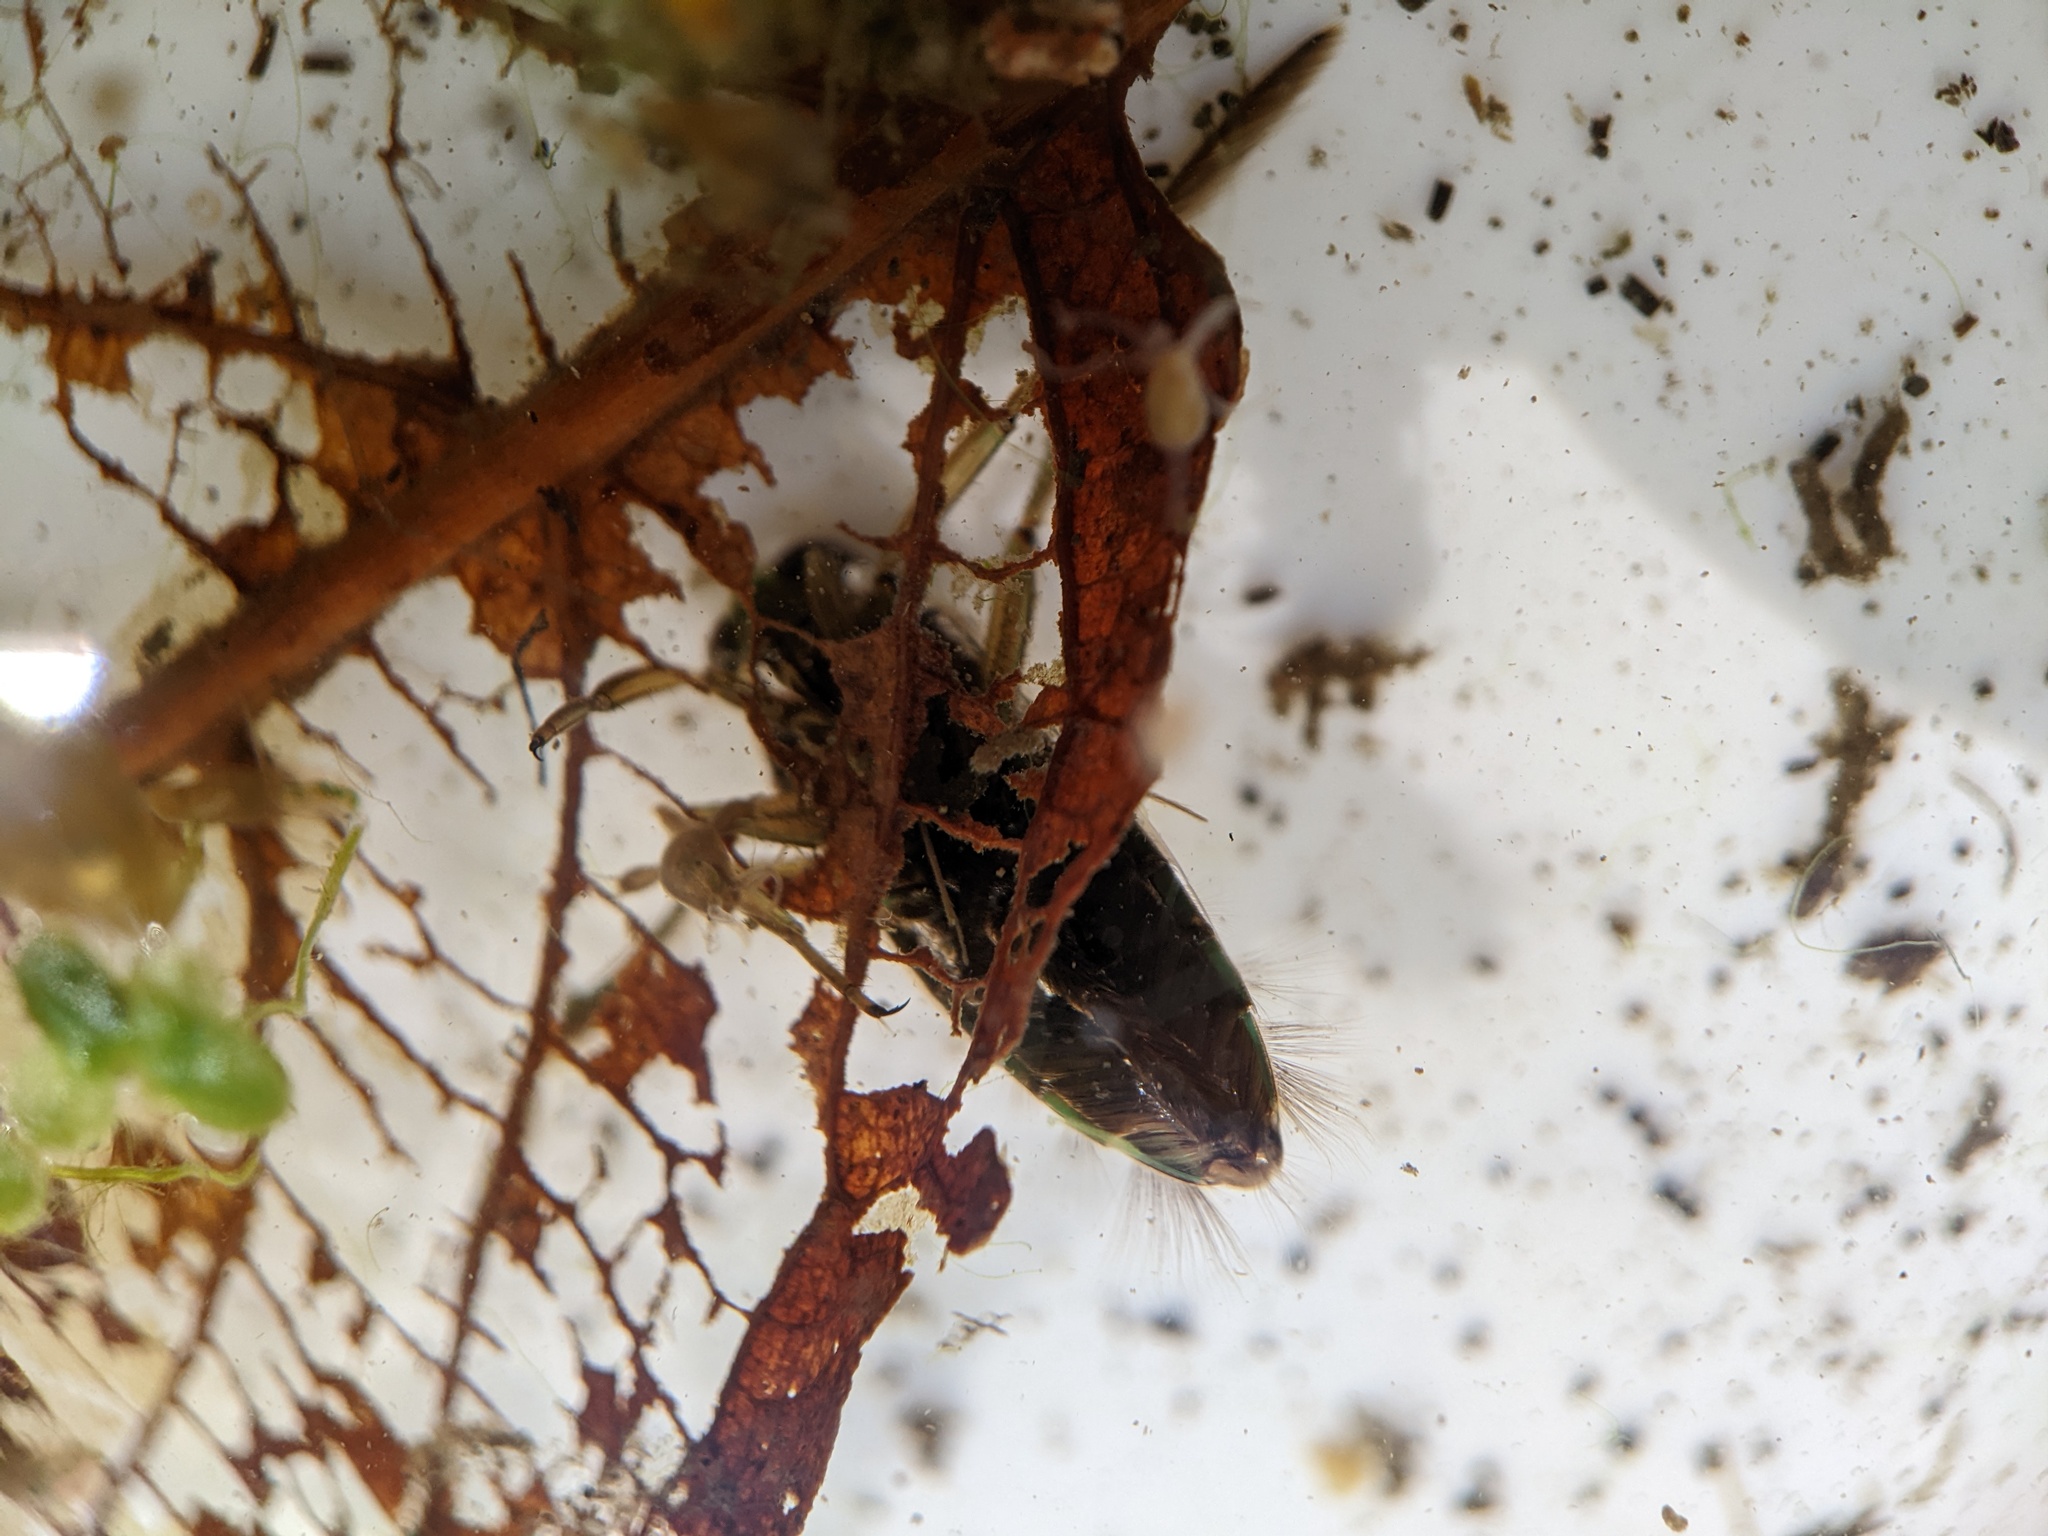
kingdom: Animalia
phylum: Arthropoda
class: Insecta
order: Hemiptera
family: Notonectidae
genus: Notonecta
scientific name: Notonecta
